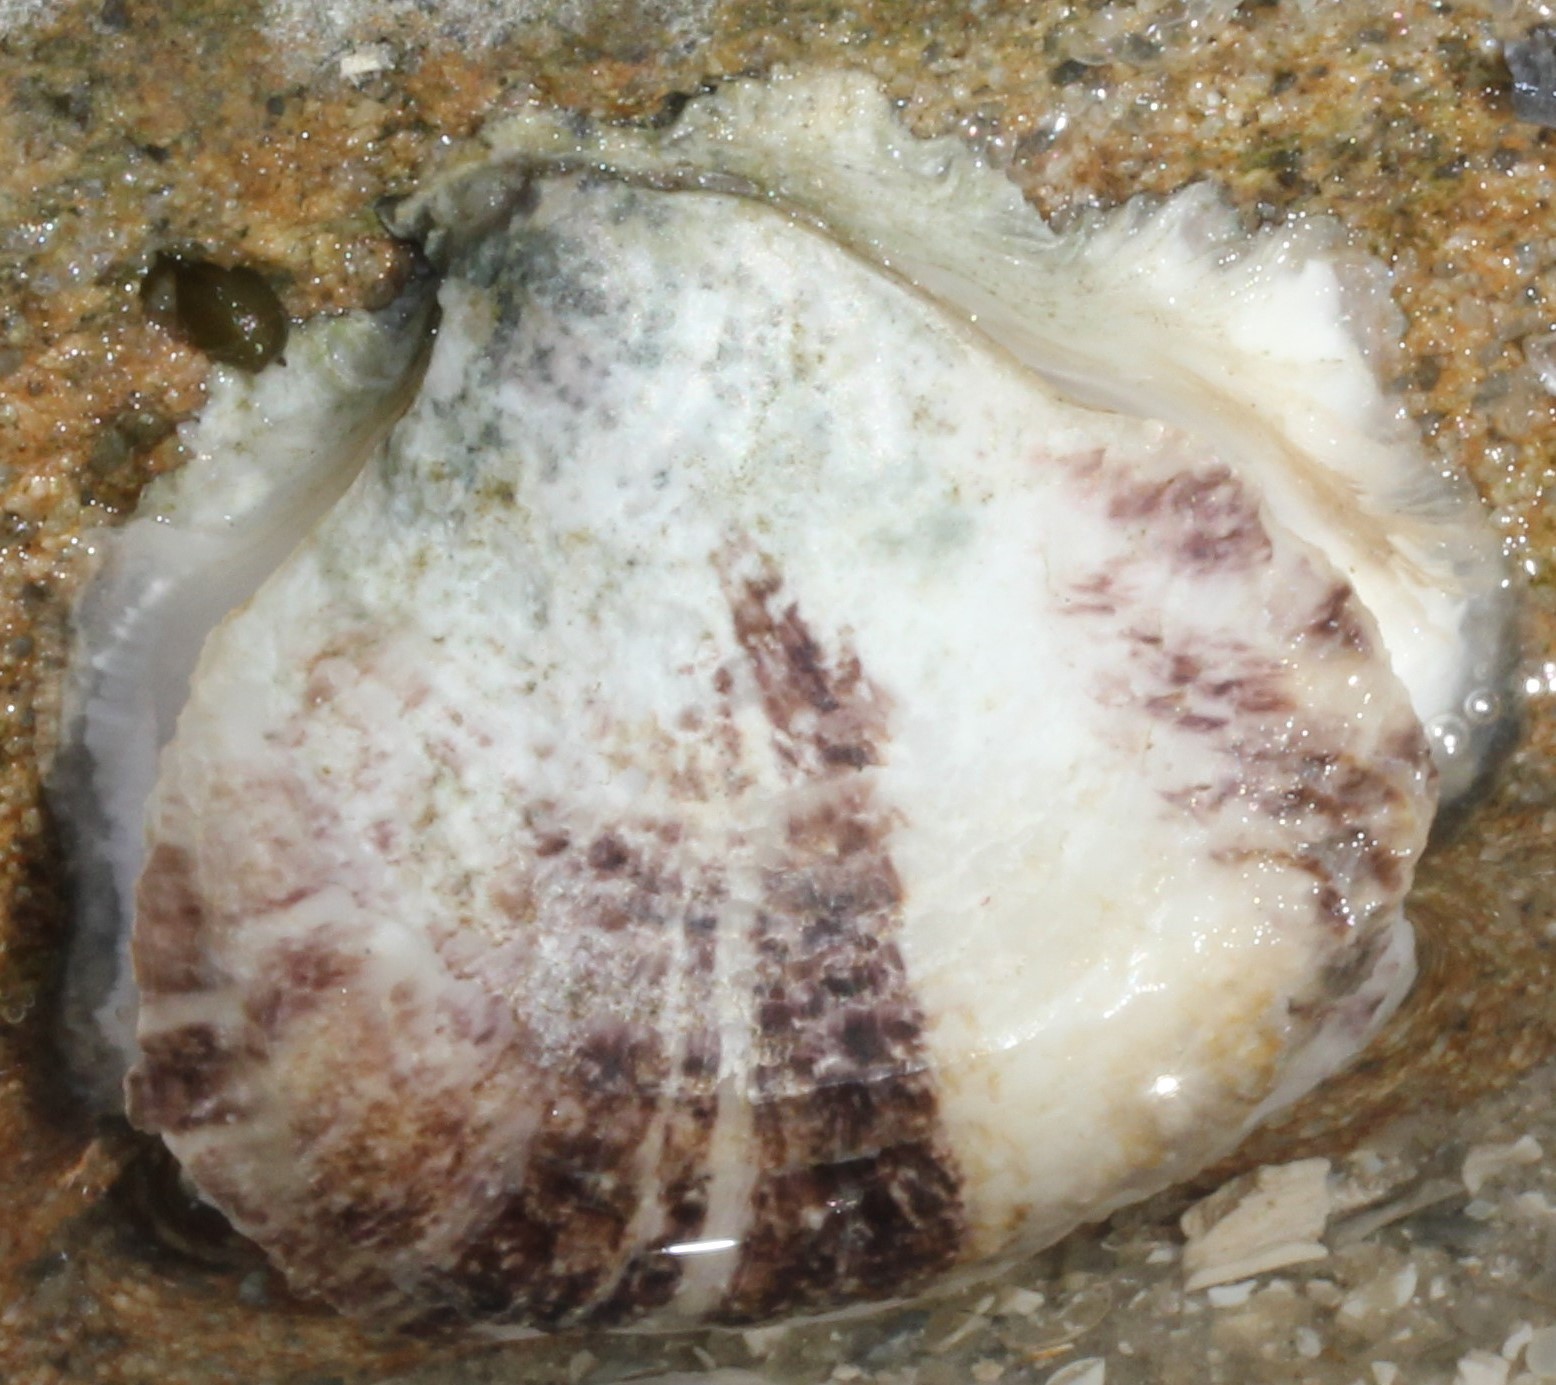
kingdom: Animalia
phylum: Mollusca
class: Bivalvia
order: Ostreida
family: Ostreidae
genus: Crassostrea
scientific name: Crassostrea virginica
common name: American oyster
